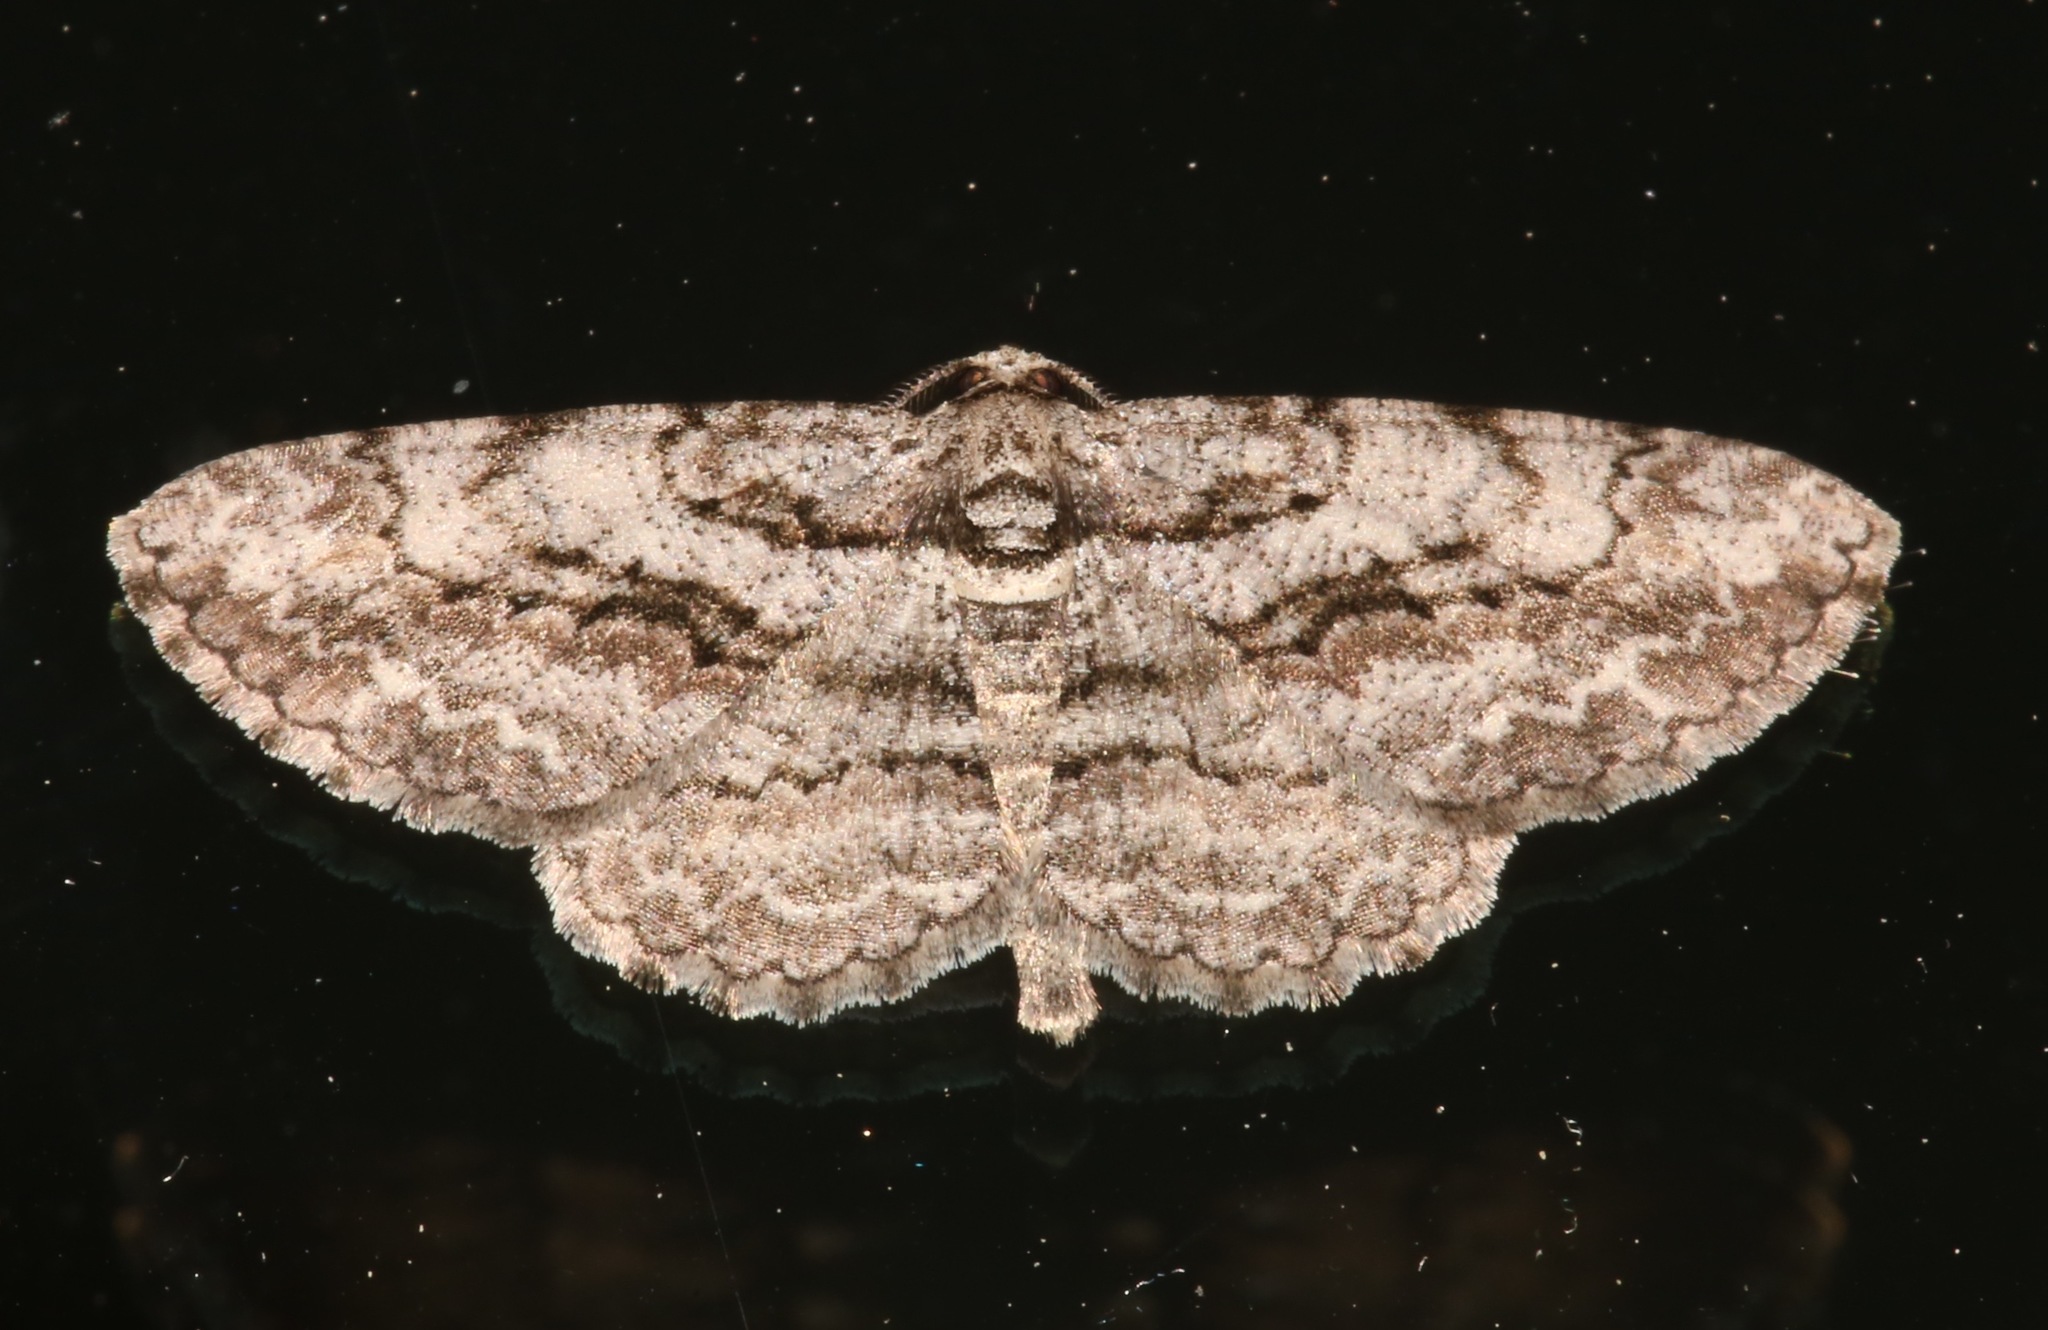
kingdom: Animalia
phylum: Arthropoda
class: Insecta
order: Lepidoptera
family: Geometridae
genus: Anavitrinella
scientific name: Anavitrinella pampinaria
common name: Common gray
